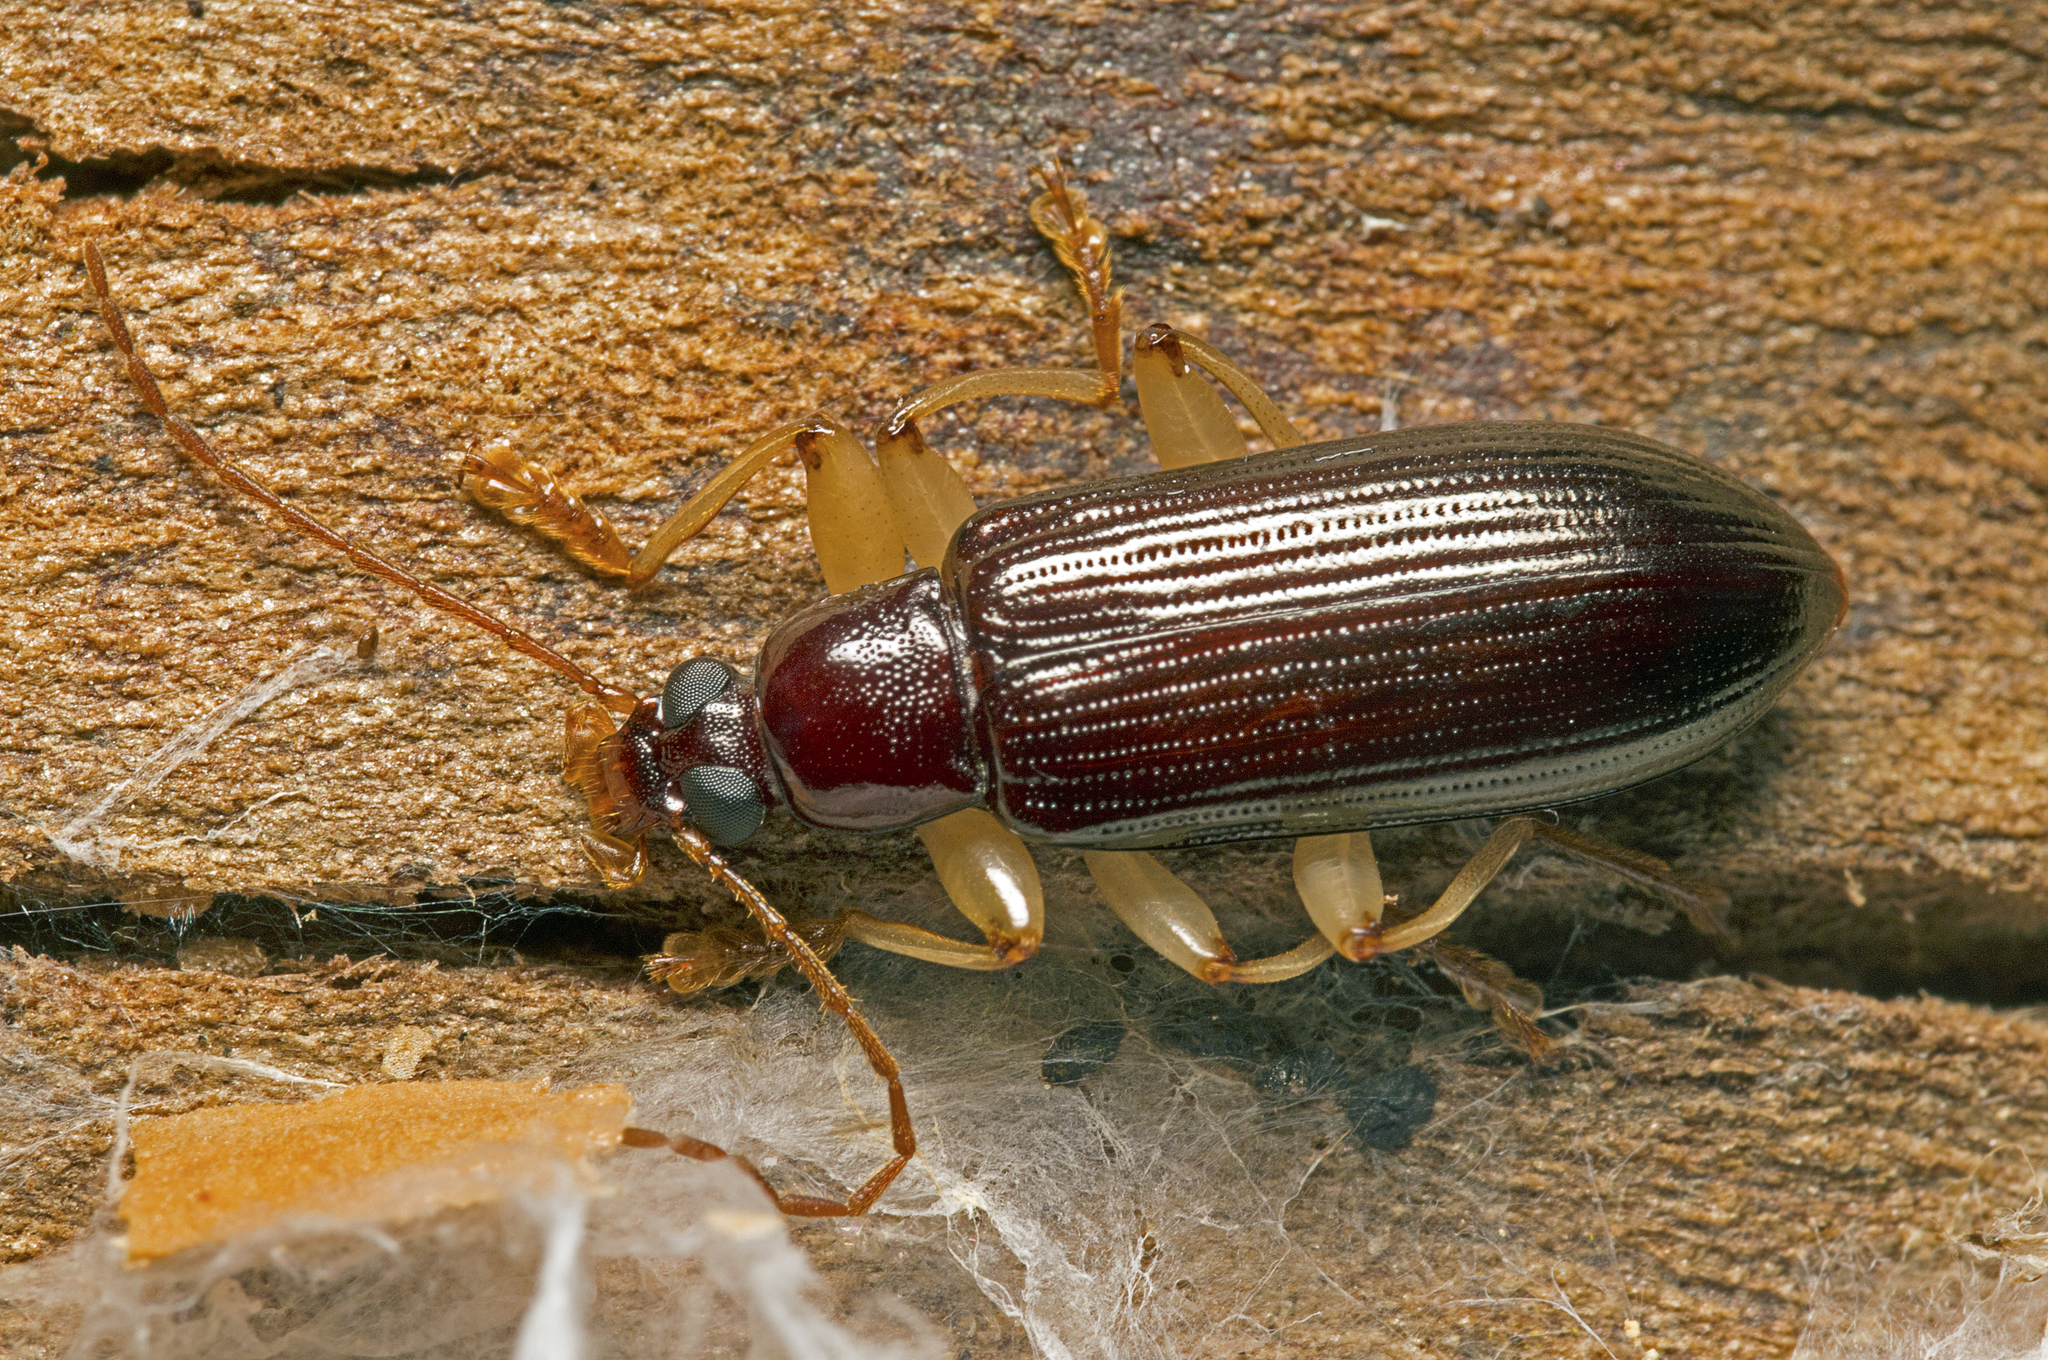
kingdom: Animalia
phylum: Arthropoda
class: Insecta
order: Coleoptera
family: Tenebrionidae
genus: Dimorphochilus
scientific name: Dimorphochilus
